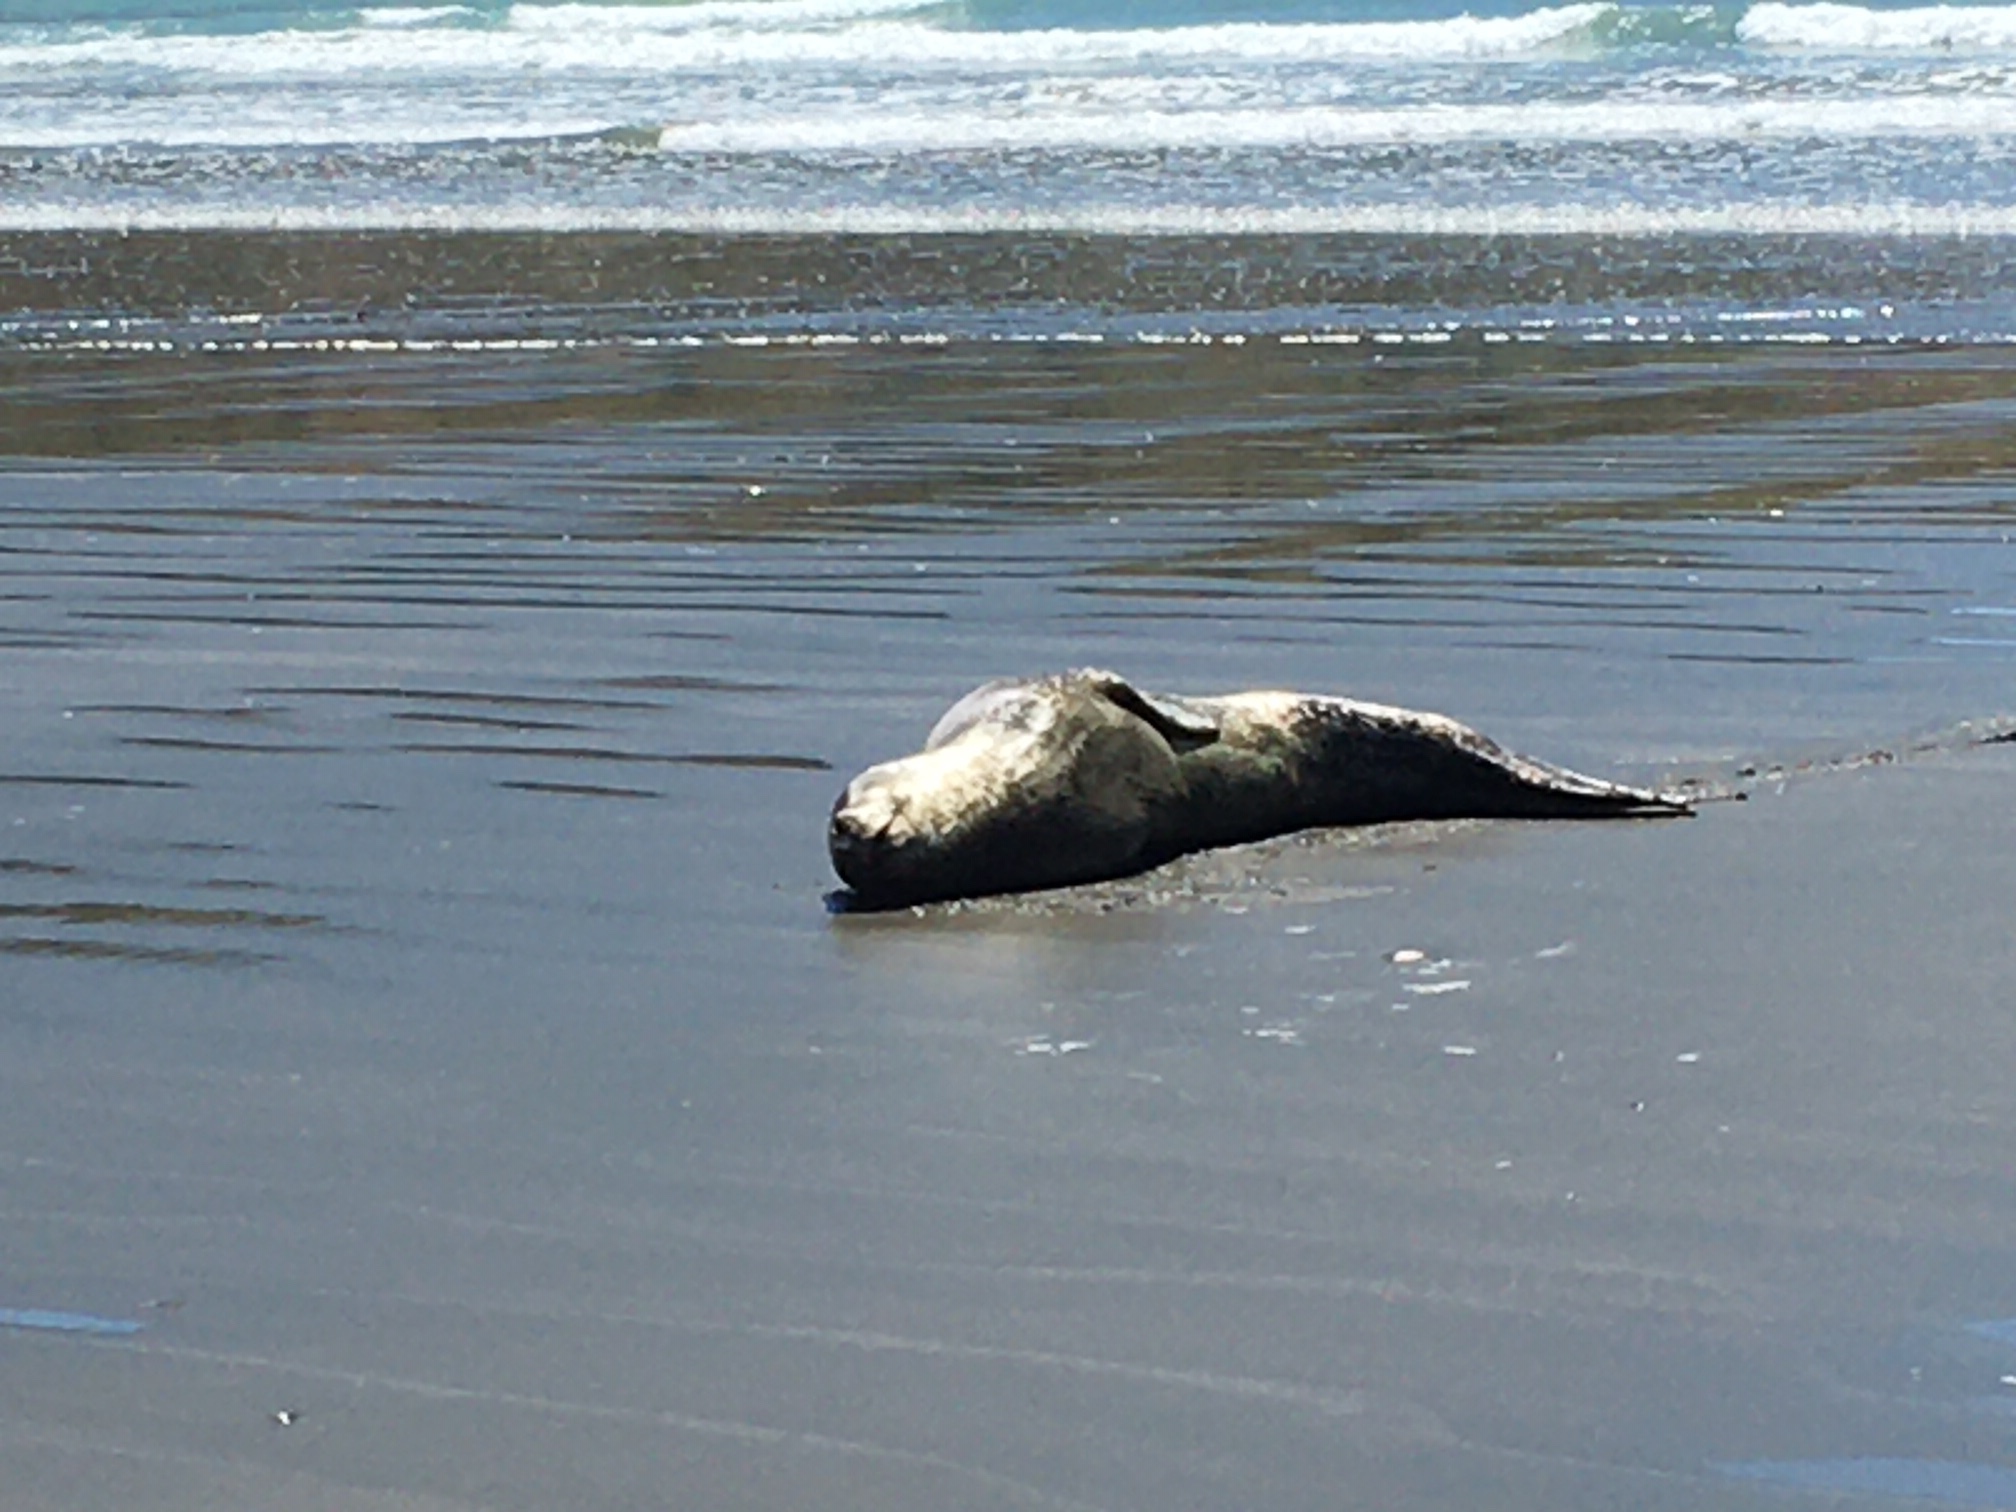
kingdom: Animalia
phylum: Chordata
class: Mammalia
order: Carnivora
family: Phocidae
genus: Hydrurga
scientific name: Hydrurga leptonyx
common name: Leopard seal
